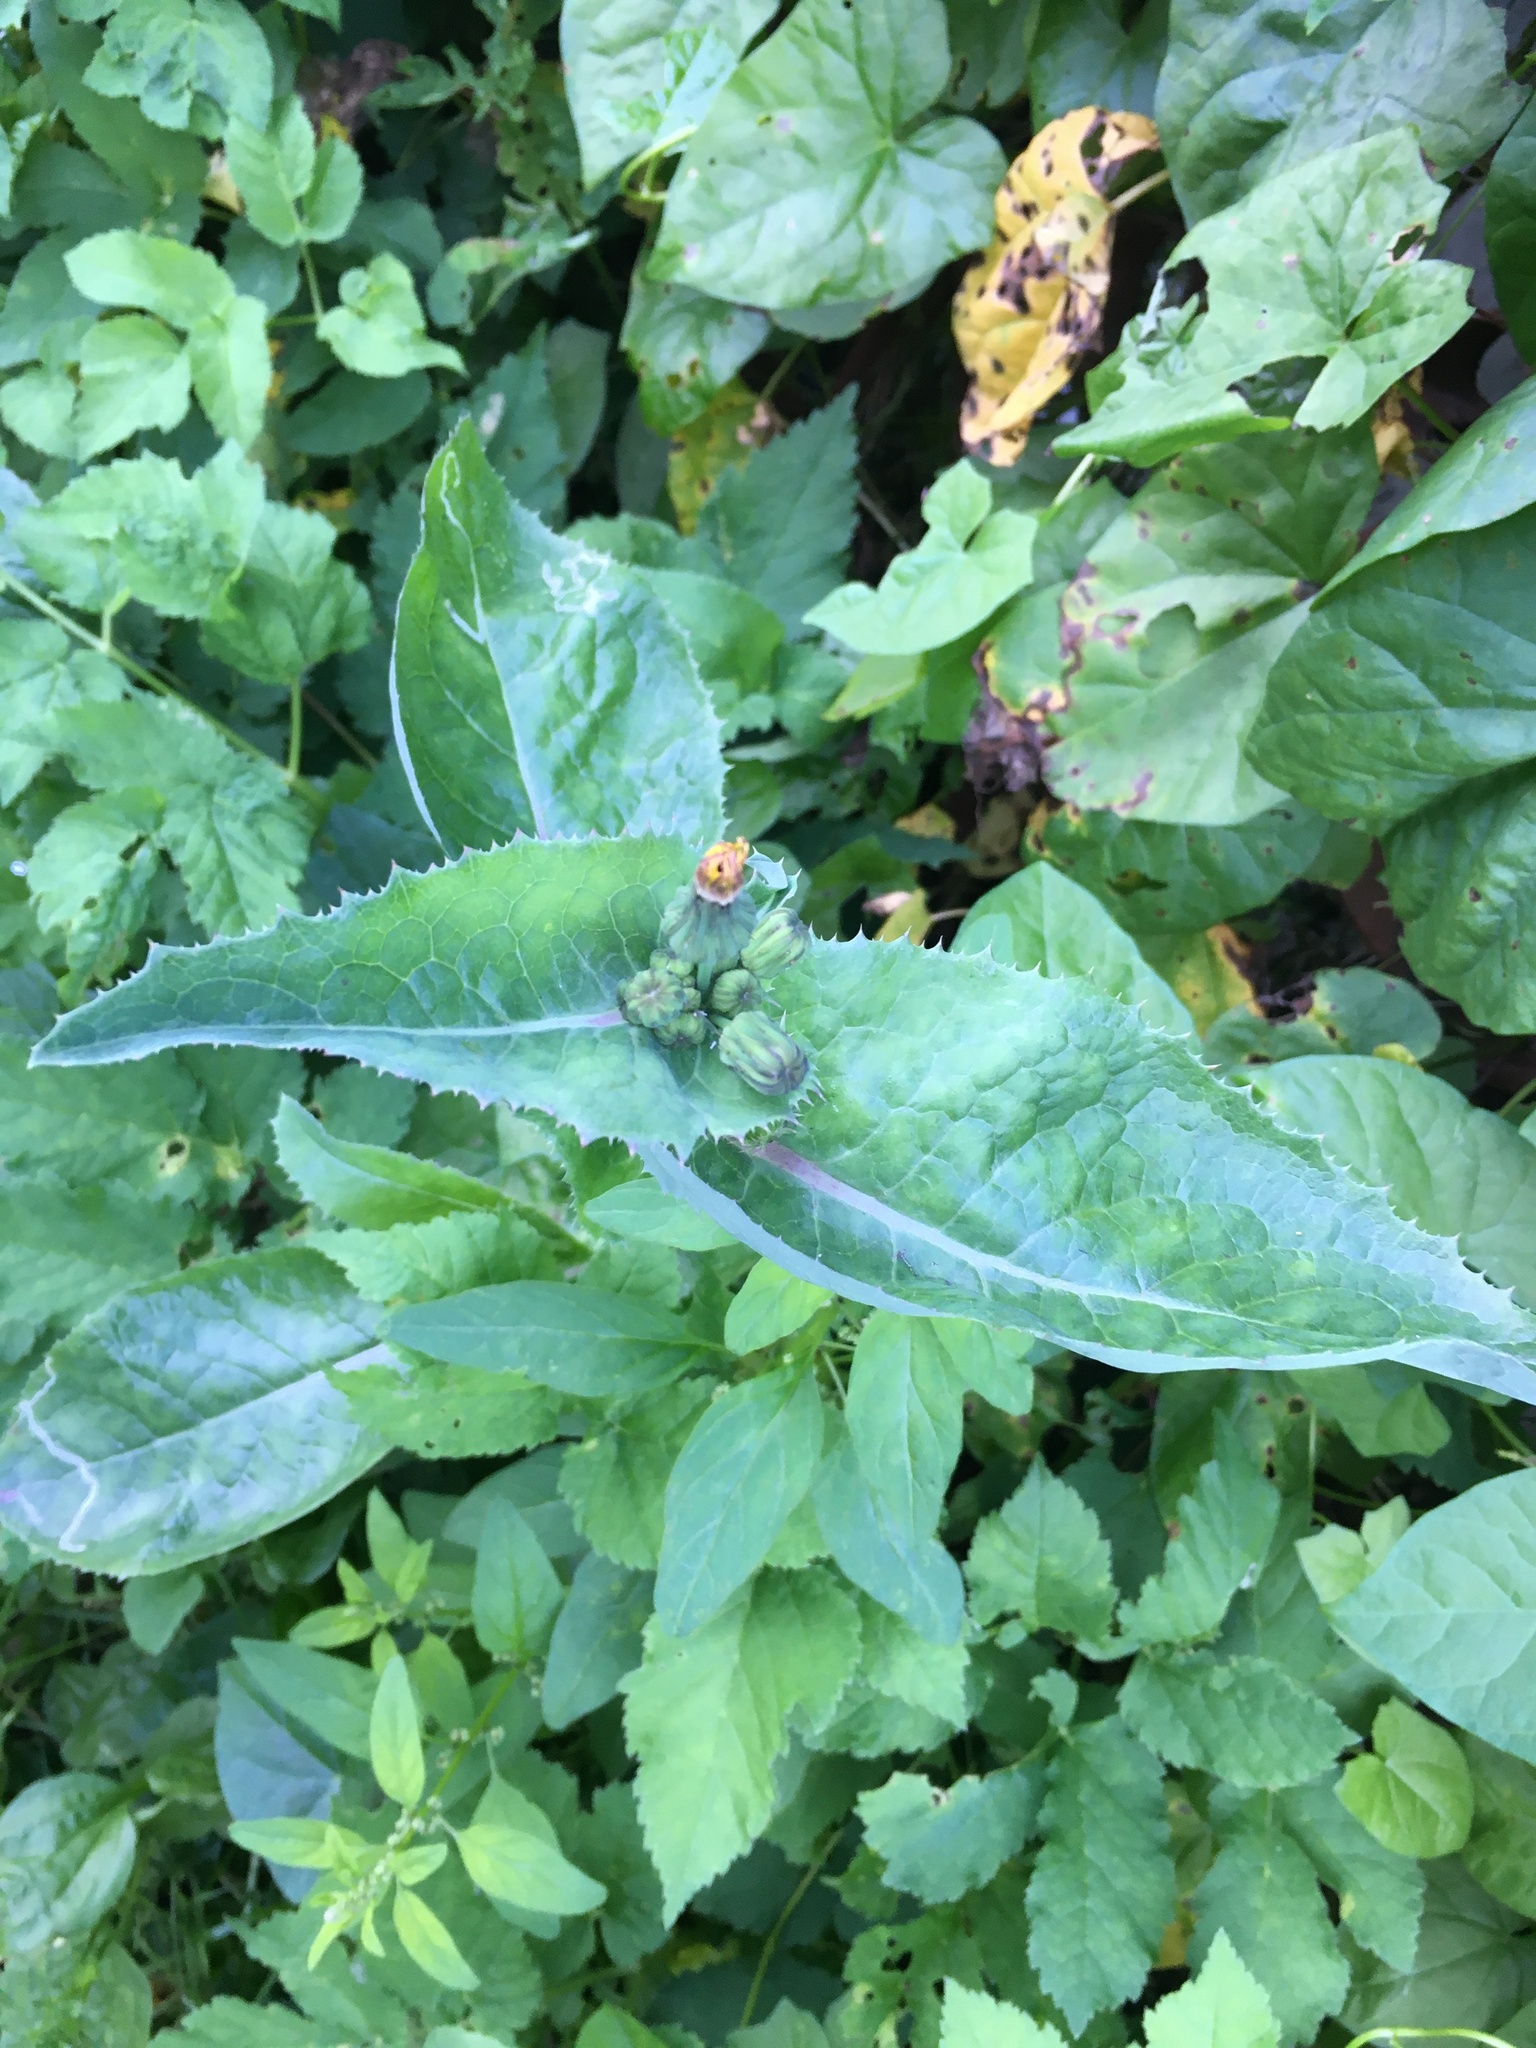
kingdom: Plantae
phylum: Tracheophyta
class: Magnoliopsida
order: Asterales
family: Asteraceae
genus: Sonchus
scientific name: Sonchus asper
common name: Prickly sow-thistle
